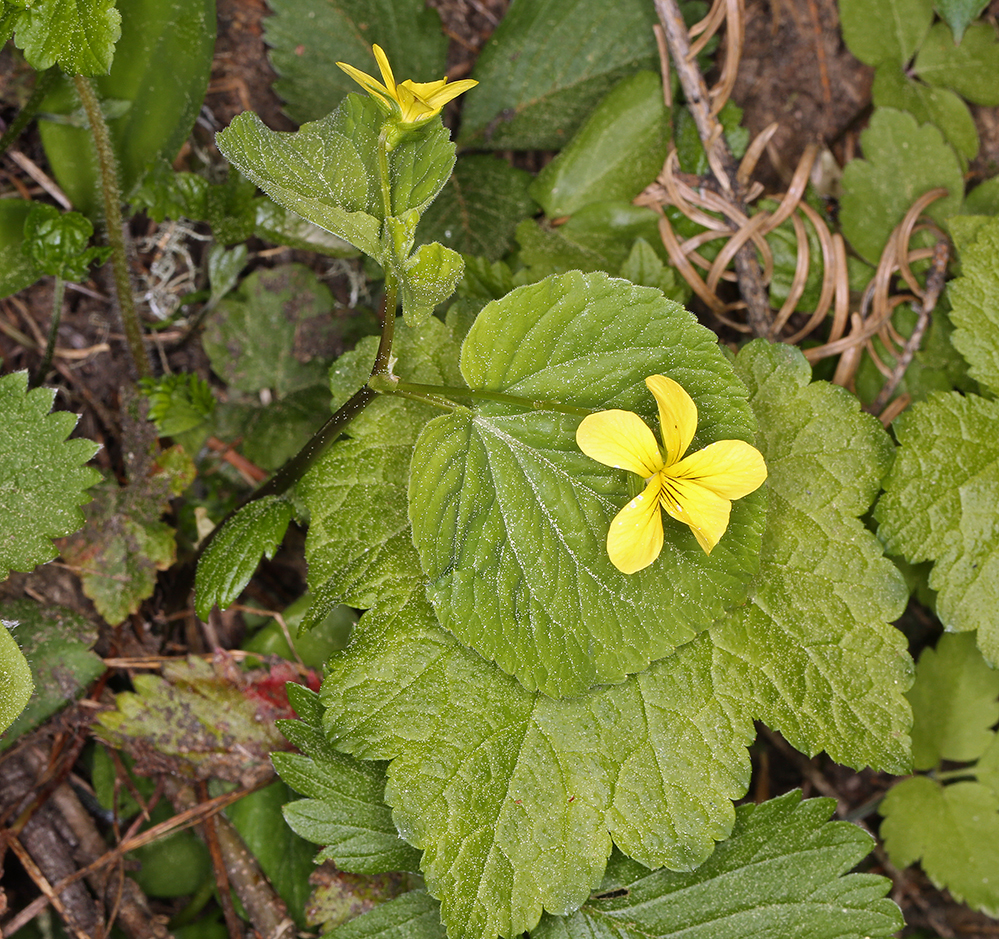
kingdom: Plantae
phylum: Tracheophyta
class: Magnoliopsida
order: Malpighiales
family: Violaceae
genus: Viola
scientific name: Viola glabella
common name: Stream violet
